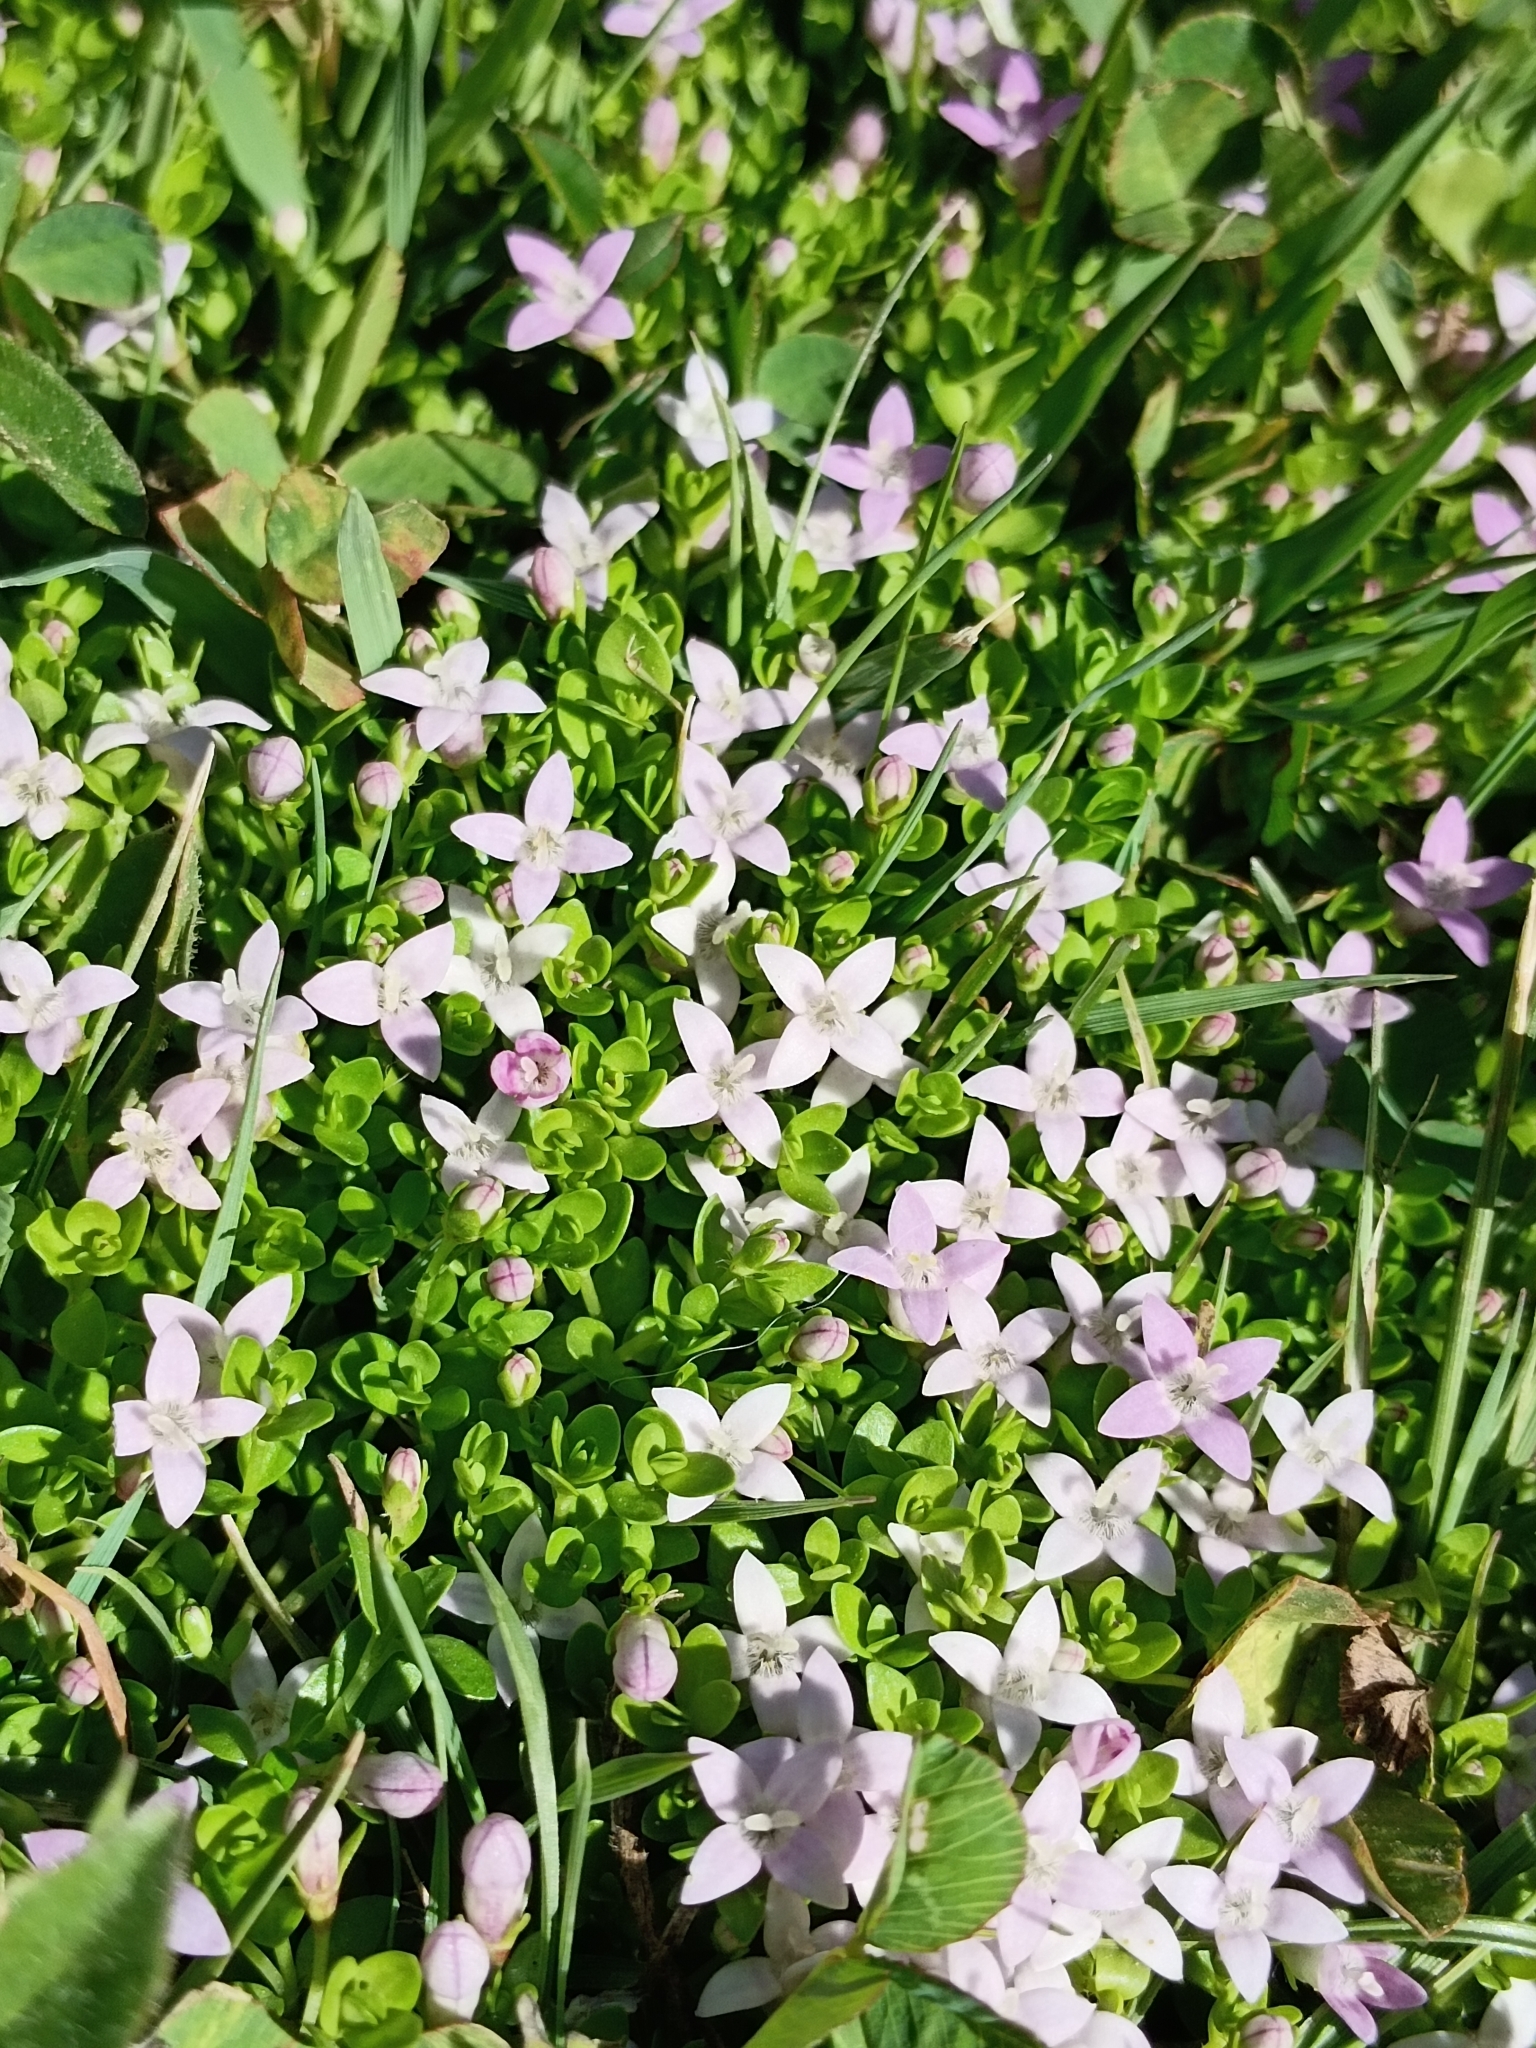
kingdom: Plantae
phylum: Tracheophyta
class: Magnoliopsida
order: Gentianales
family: Rubiaceae
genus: Oldenlandia
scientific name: Oldenlandia salzmannii
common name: Salzmann's mille graines
